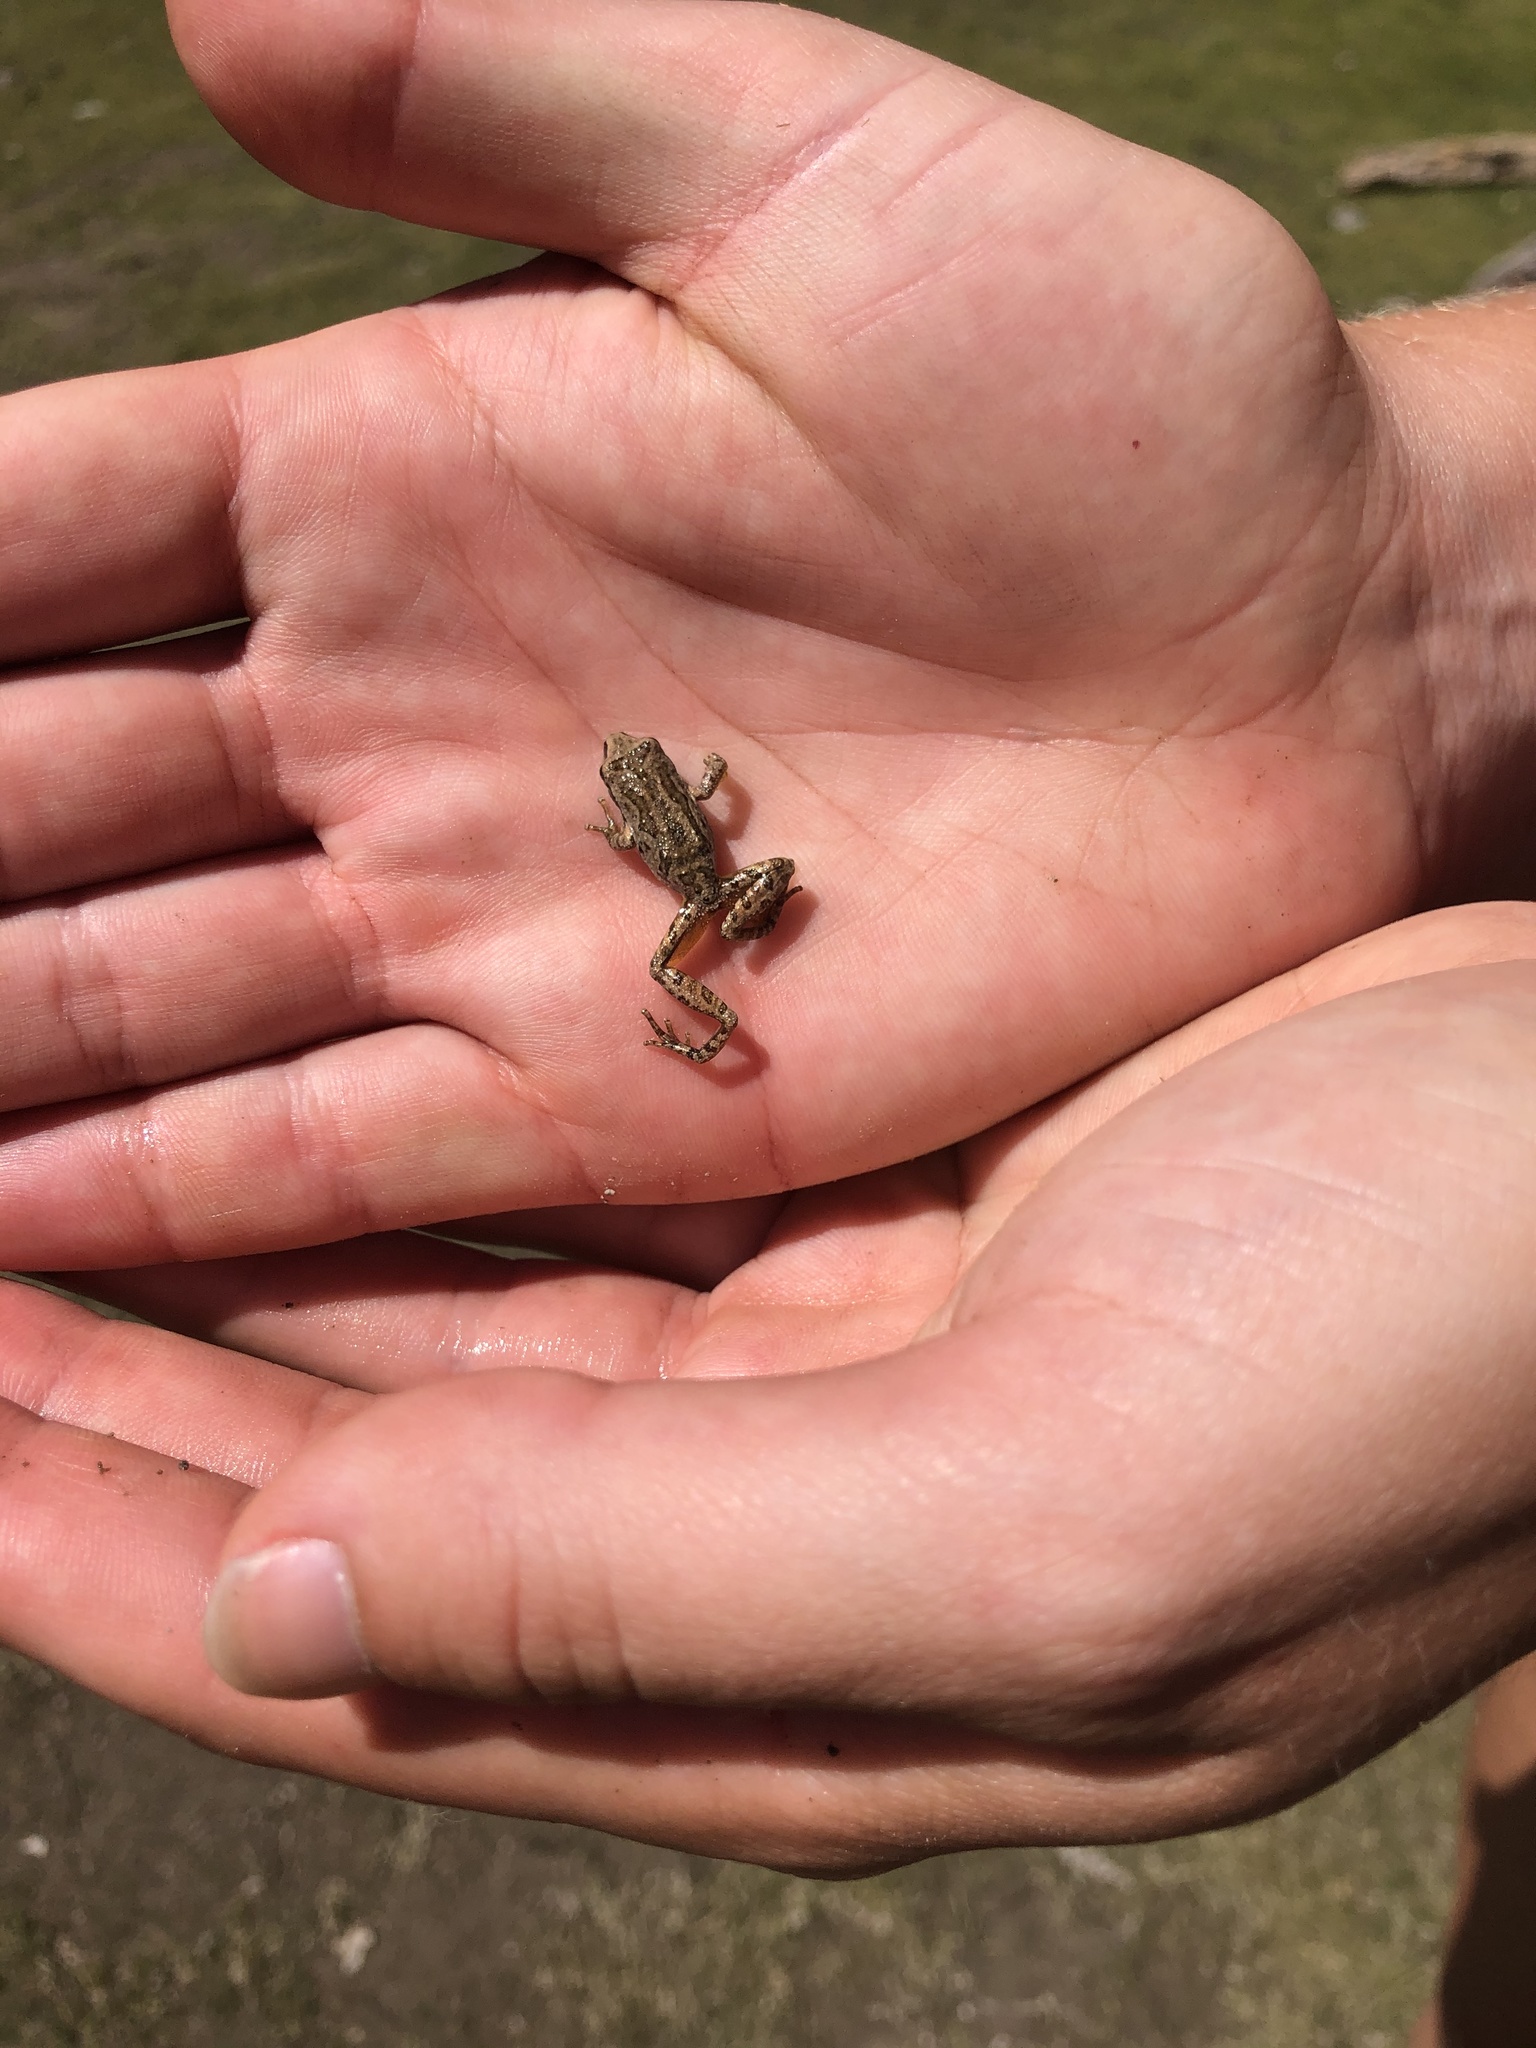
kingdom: Animalia
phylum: Chordata
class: Amphibia
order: Anura
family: Hylidae
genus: Pseudacris
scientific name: Pseudacris regilla
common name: Pacific chorus frog
